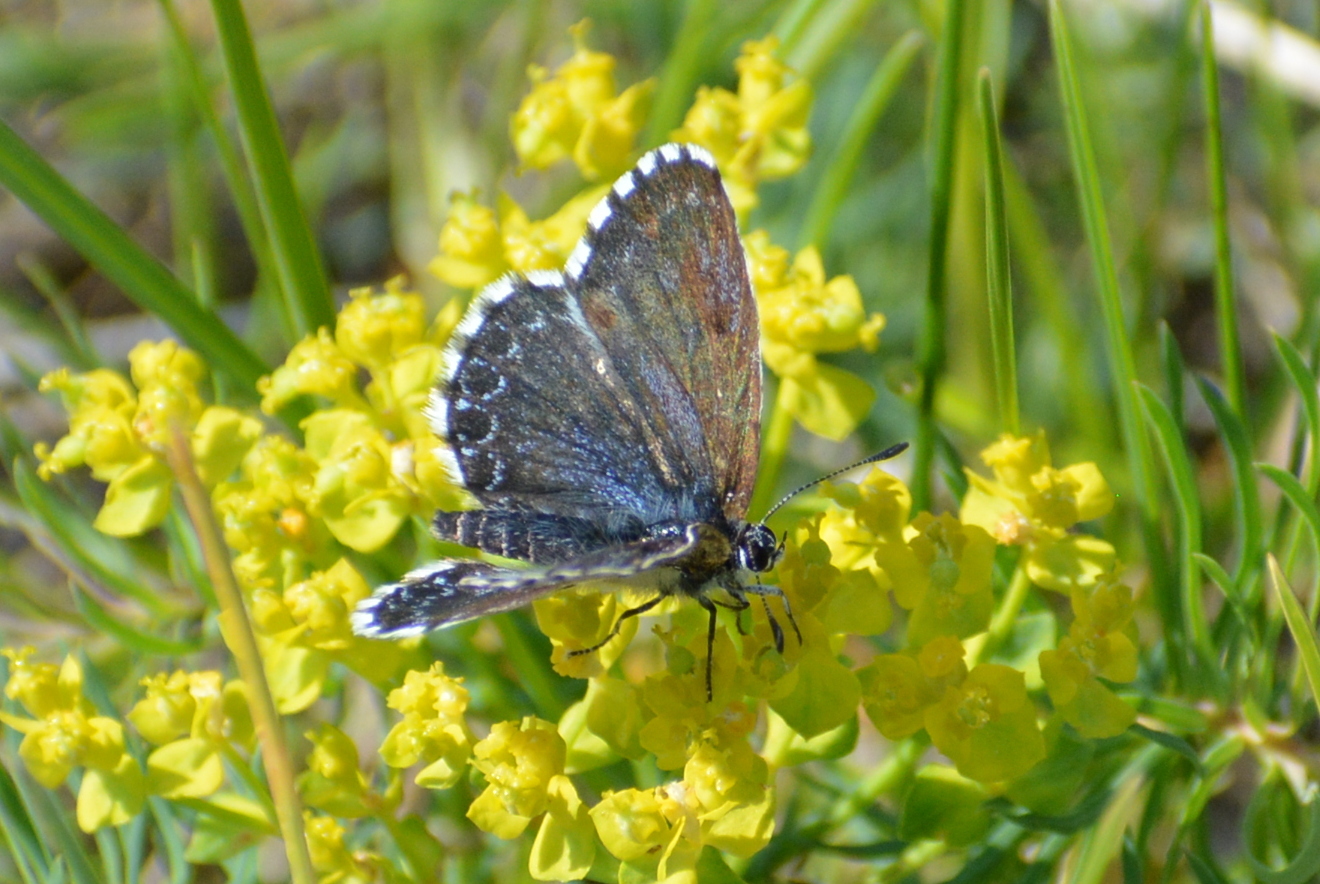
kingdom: Animalia
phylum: Arthropoda
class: Insecta
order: Lepidoptera
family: Lycaenidae
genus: Scolitantides
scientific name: Scolitantides orion
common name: Chequered blue
